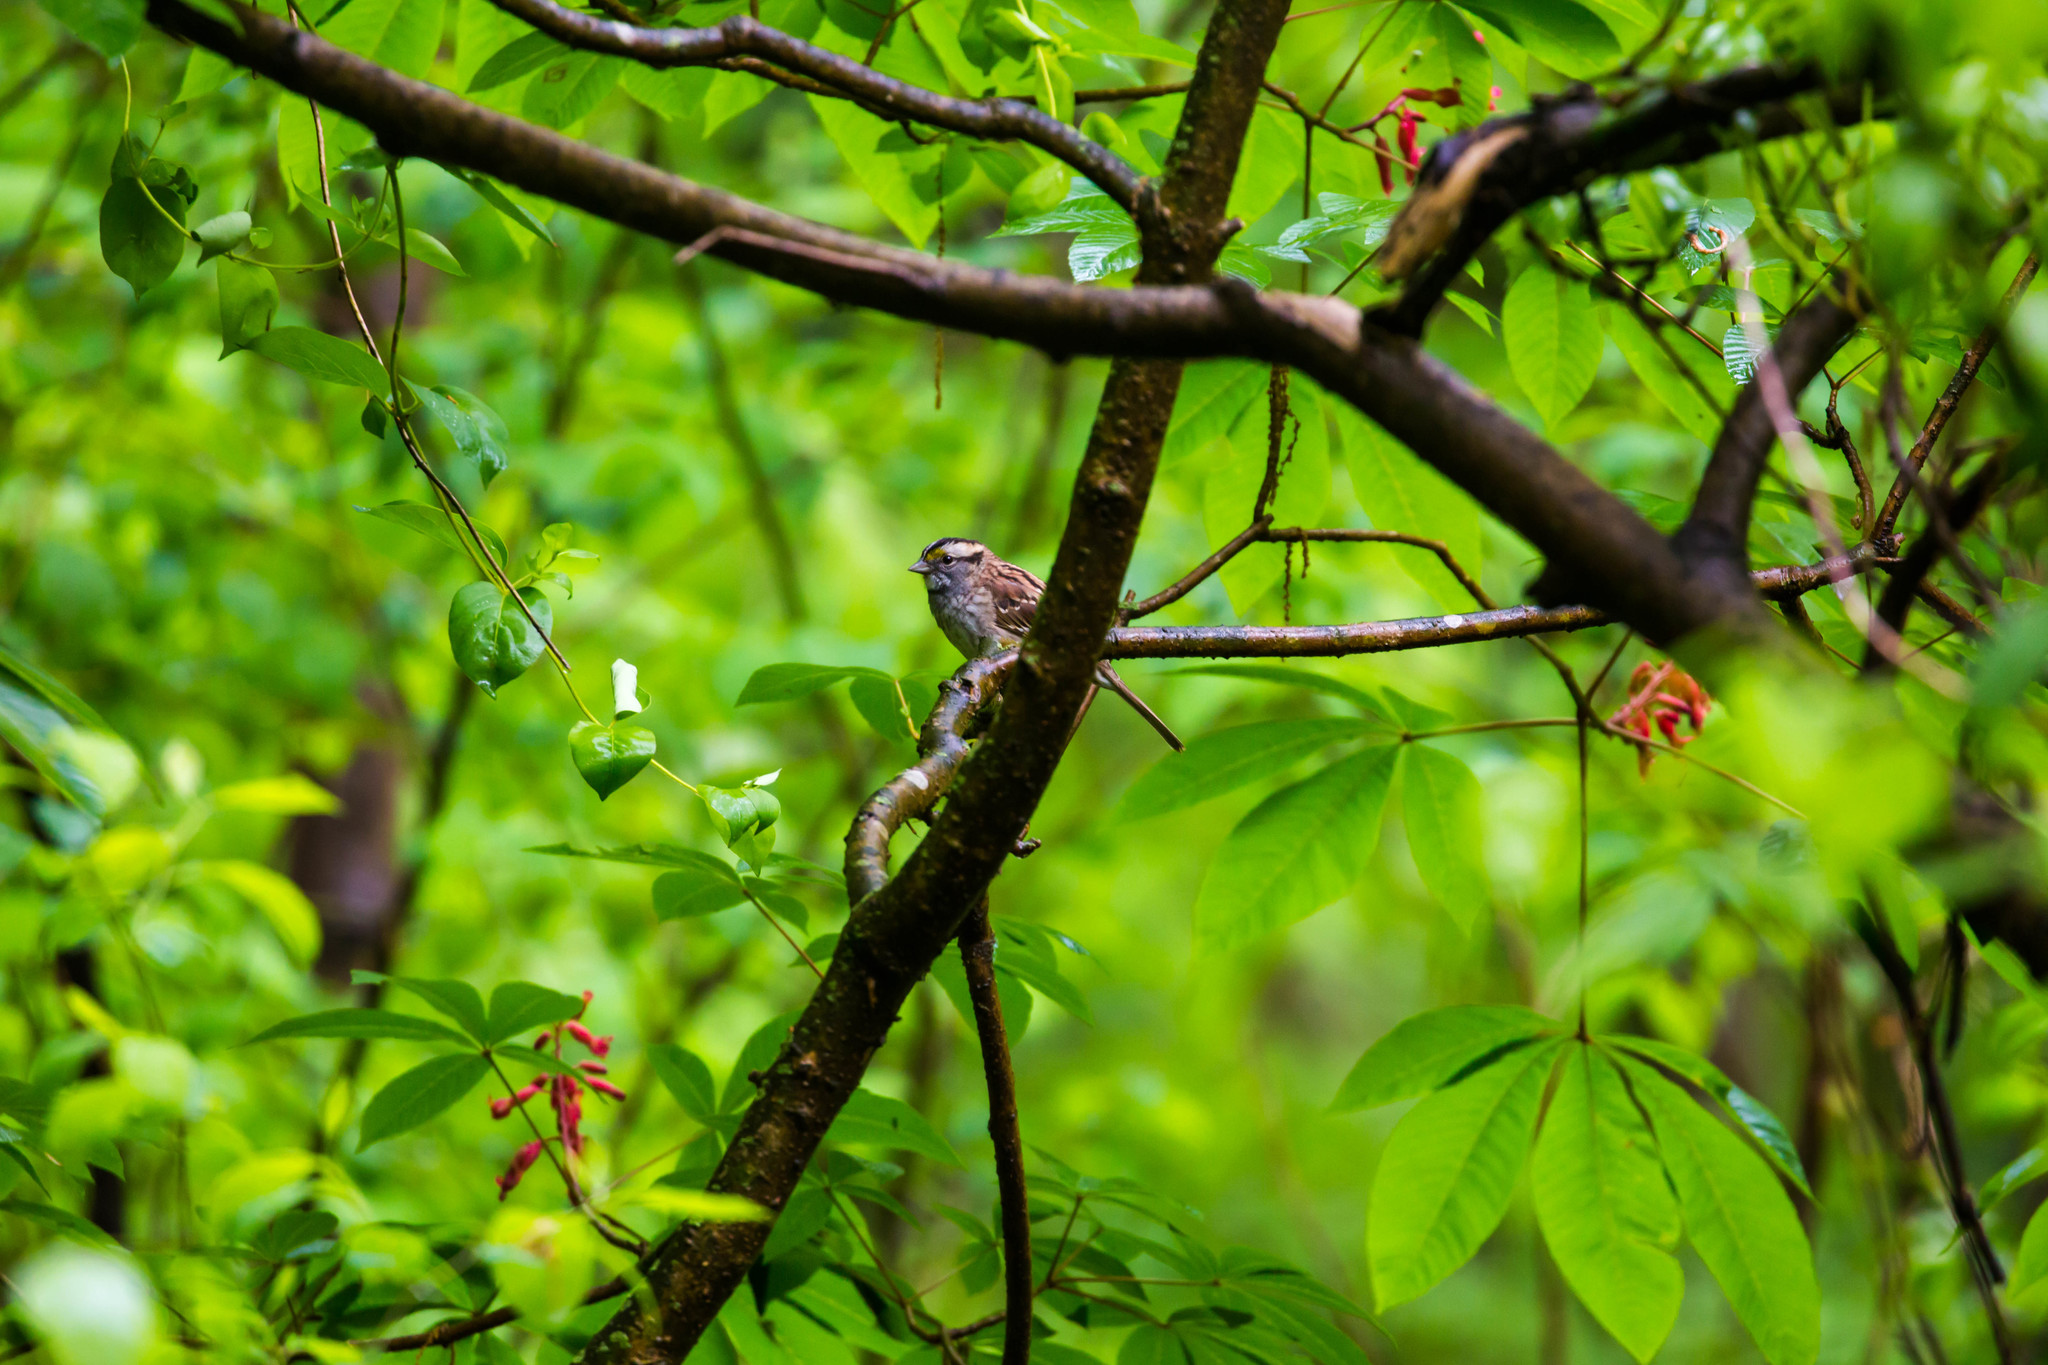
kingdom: Animalia
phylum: Chordata
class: Aves
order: Passeriformes
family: Passerellidae
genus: Zonotrichia
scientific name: Zonotrichia albicollis
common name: White-throated sparrow
